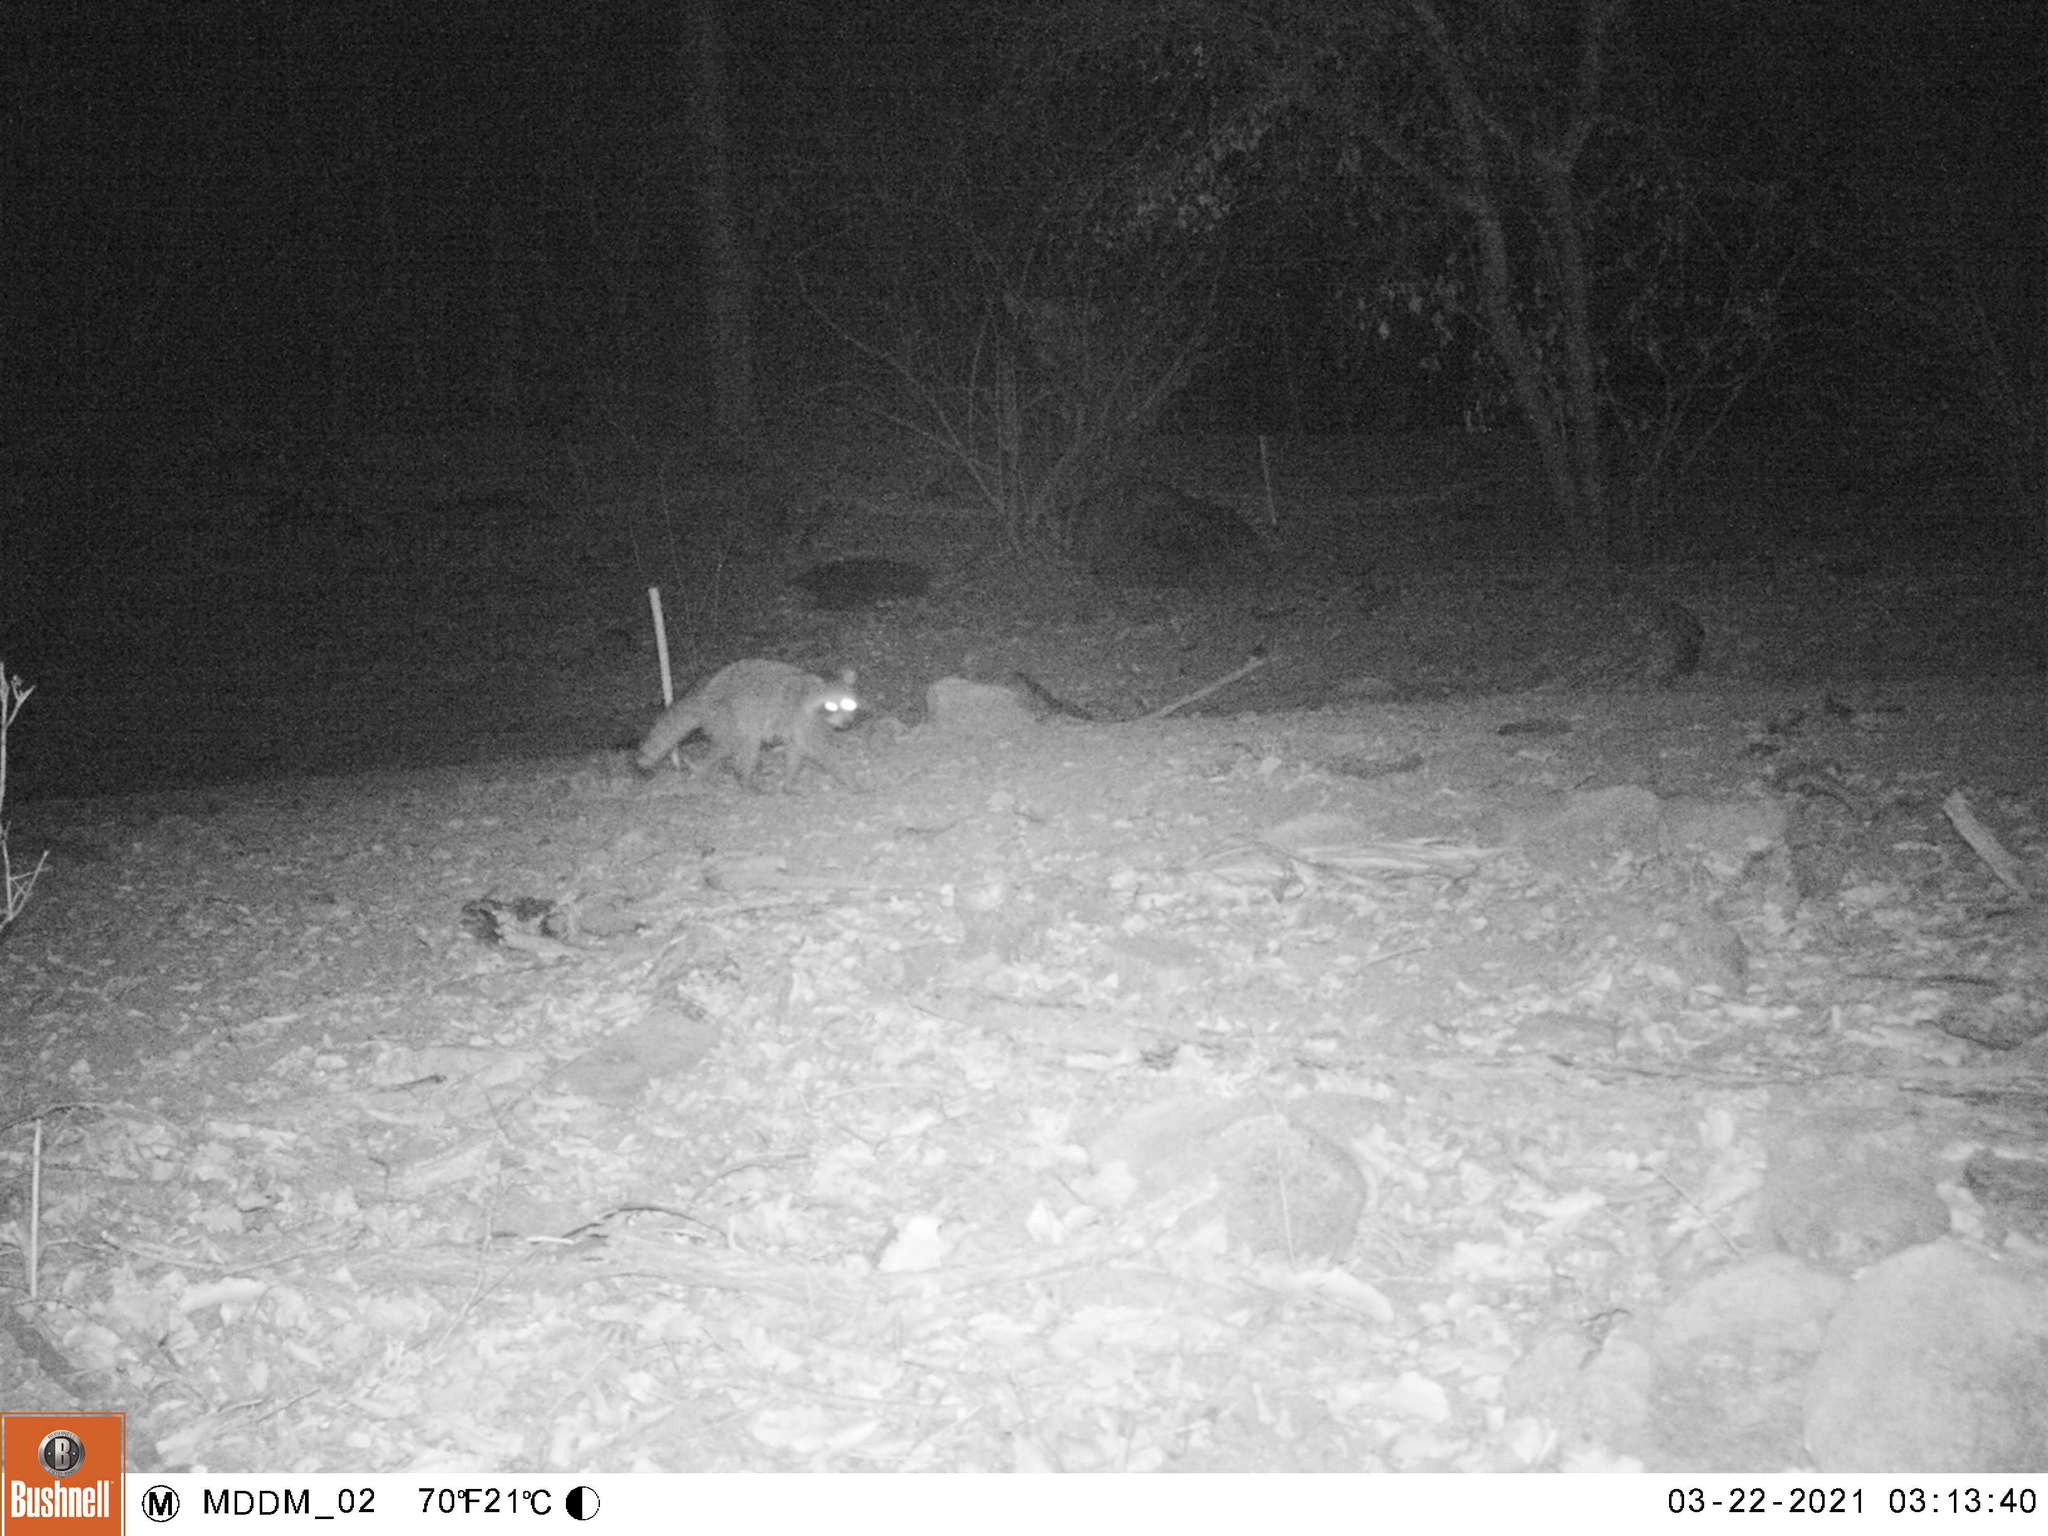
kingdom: Animalia
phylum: Chordata
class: Mammalia
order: Carnivora
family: Procyonidae
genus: Procyon
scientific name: Procyon lotor
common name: Raccoon
